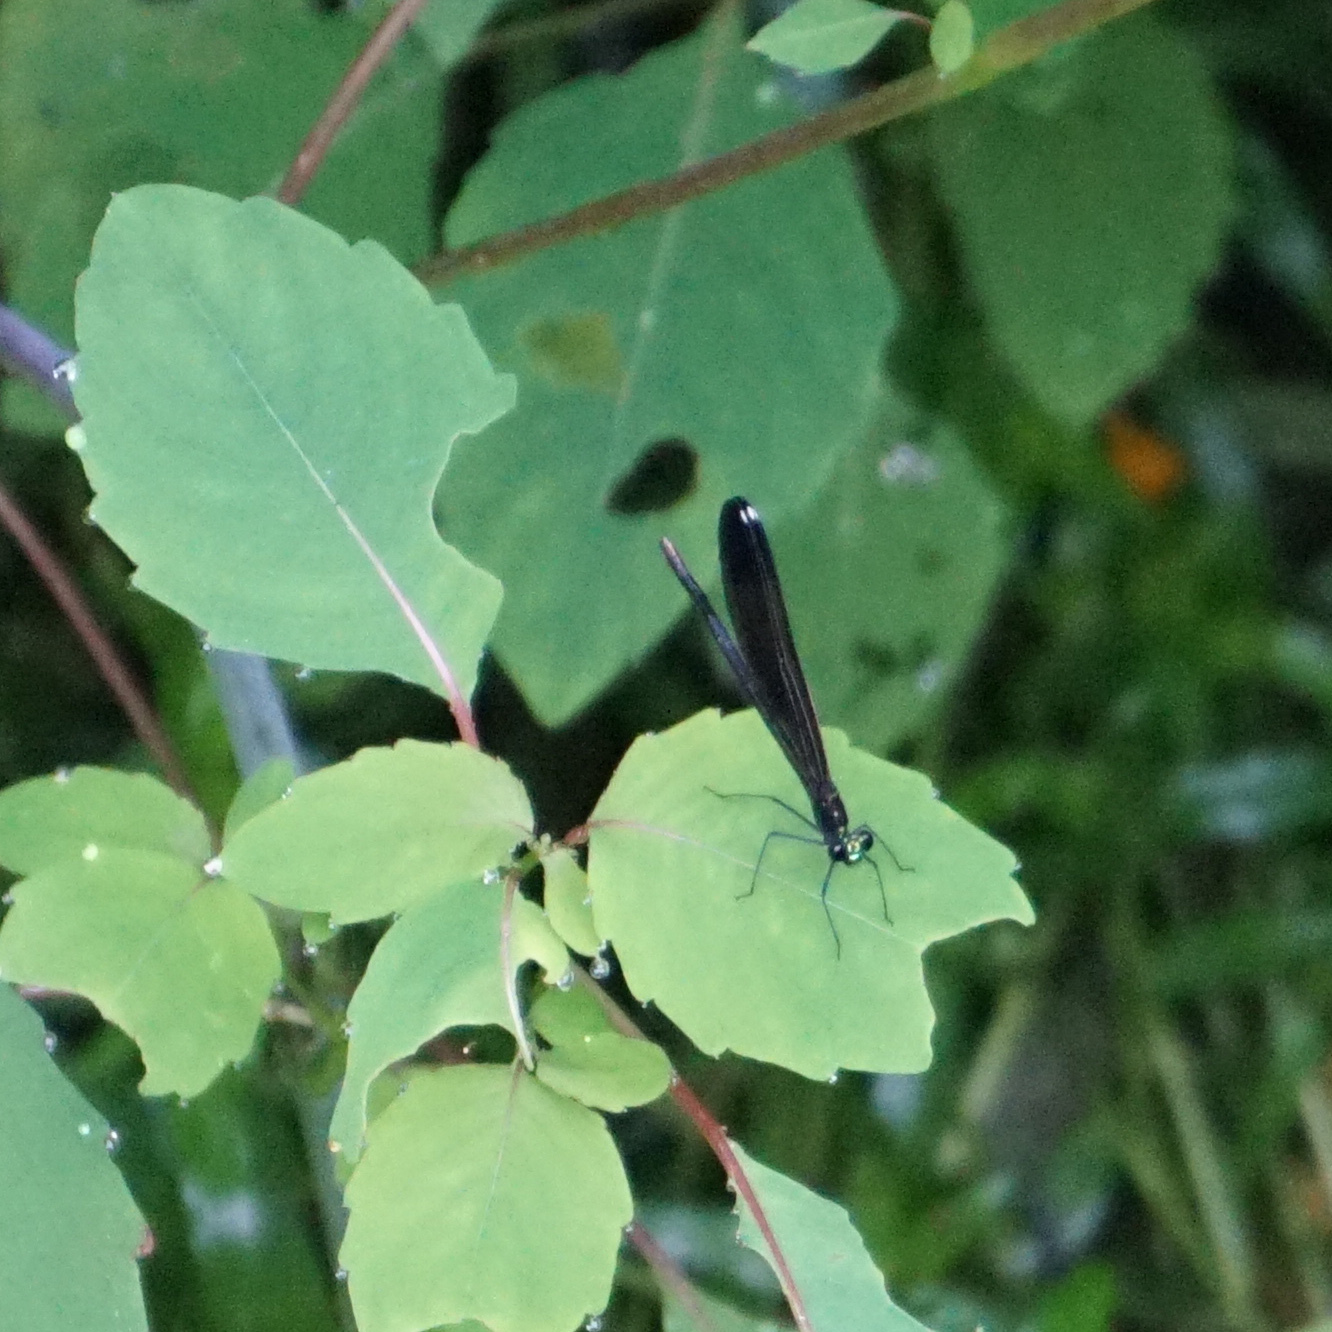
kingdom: Animalia
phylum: Arthropoda
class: Insecta
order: Odonata
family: Calopterygidae
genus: Calopteryx
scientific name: Calopteryx maculata
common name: Ebony jewelwing
